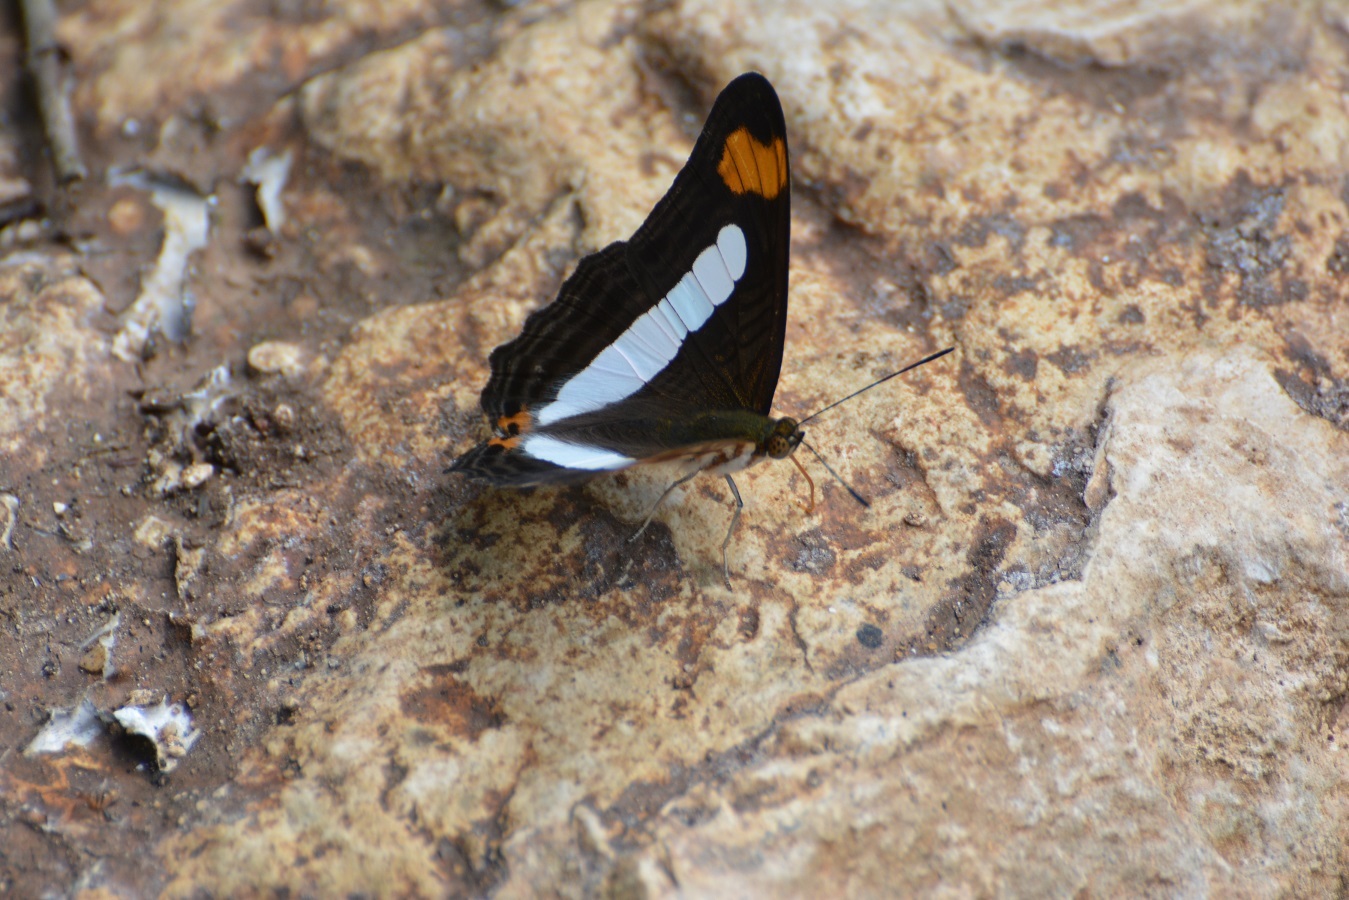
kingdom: Animalia
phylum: Arthropoda
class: Insecta
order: Lepidoptera
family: Nymphalidae
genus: Limenitis
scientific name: Limenitis iphiclus
